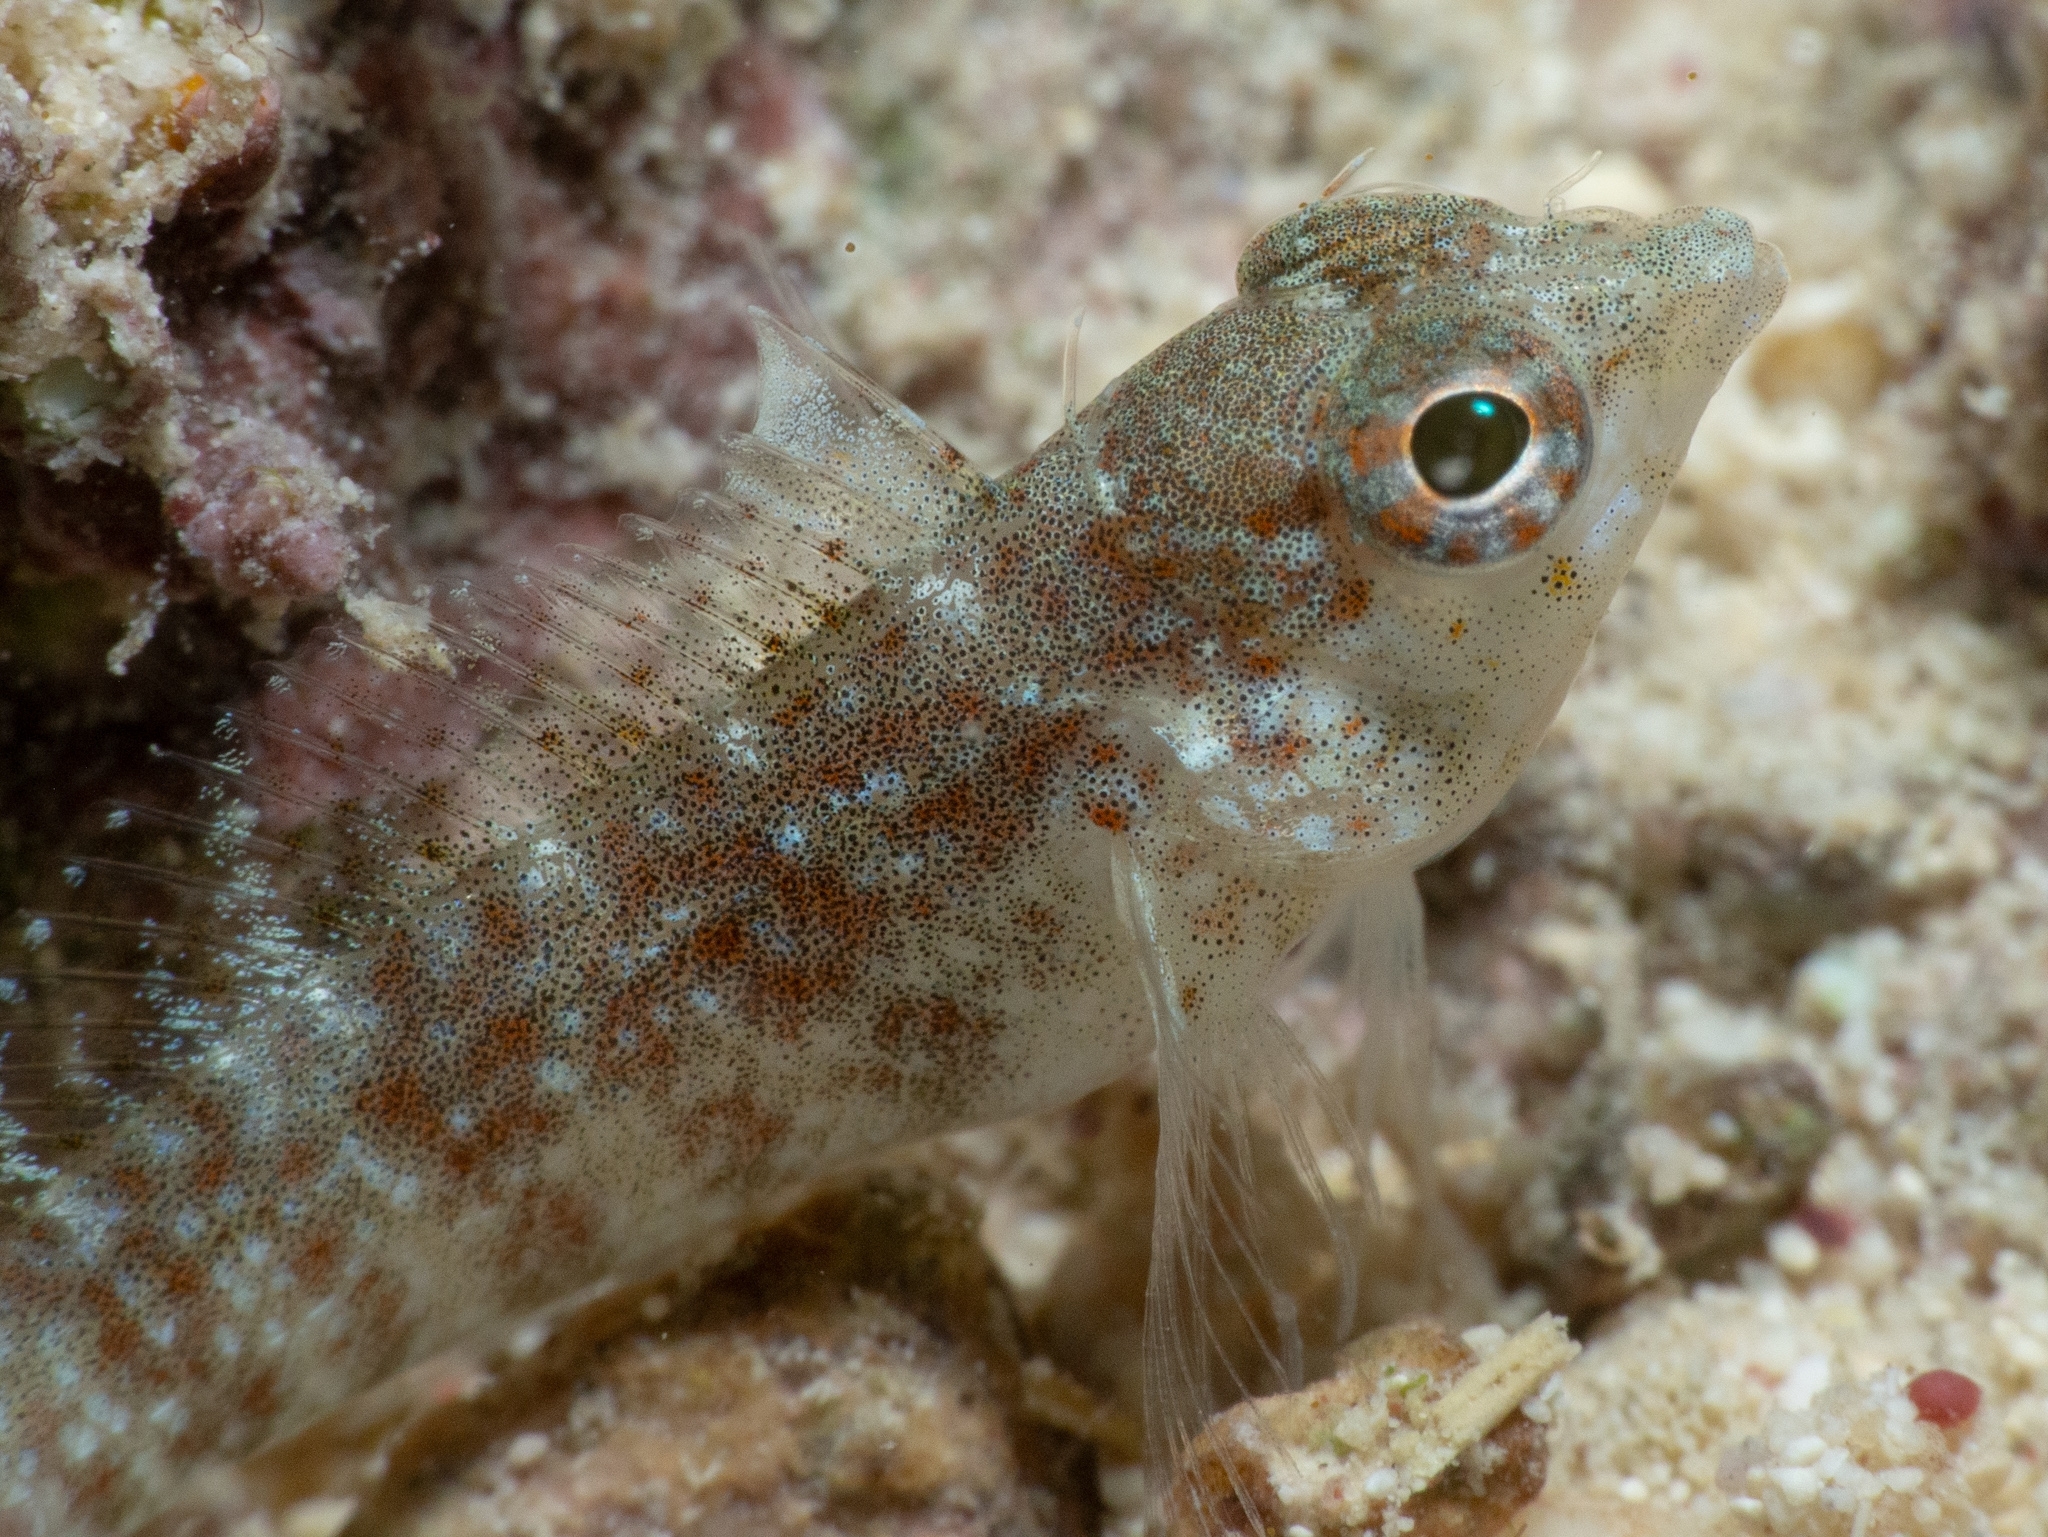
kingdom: Animalia
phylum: Chordata
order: Perciformes
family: Labrisomidae
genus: Malacoctenus
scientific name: Malacoctenus macropus
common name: Rosy blenny
